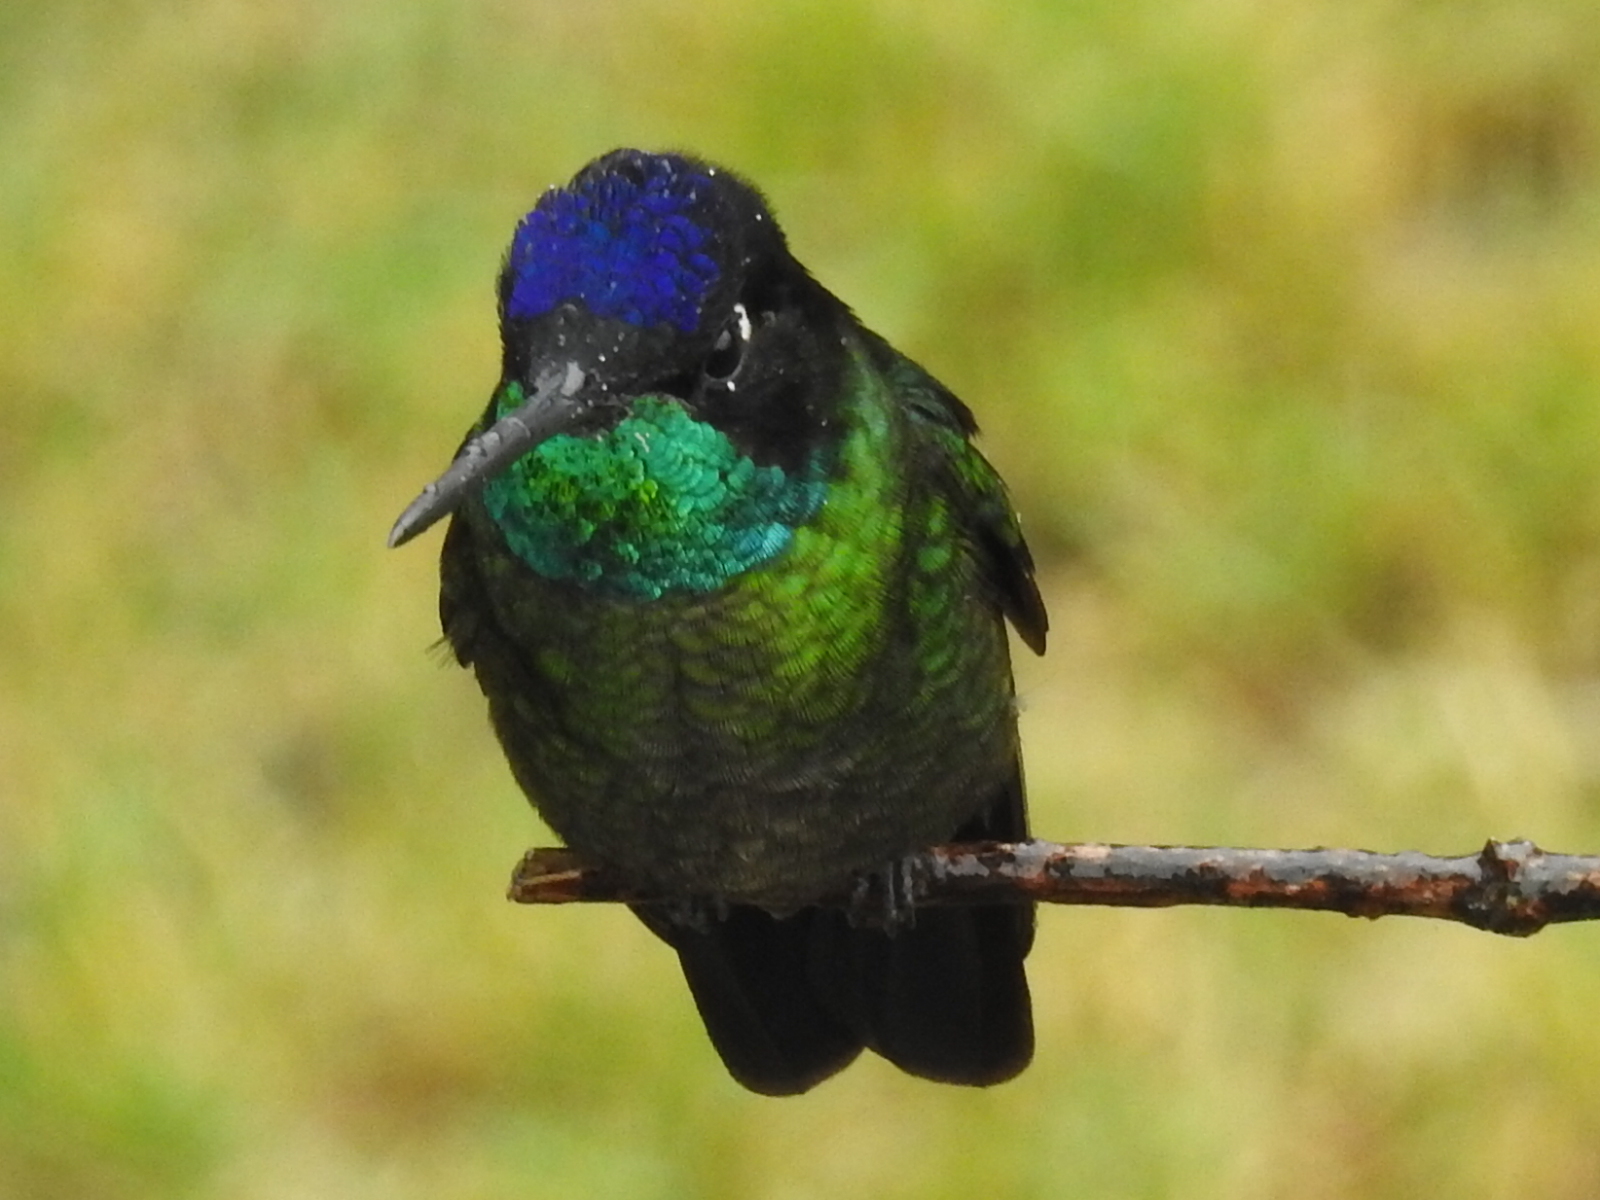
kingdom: Animalia
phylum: Chordata
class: Aves
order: Apodiformes
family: Trochilidae
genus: Eugenes
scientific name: Eugenes spectabilis
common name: Talamanca hummingbird
